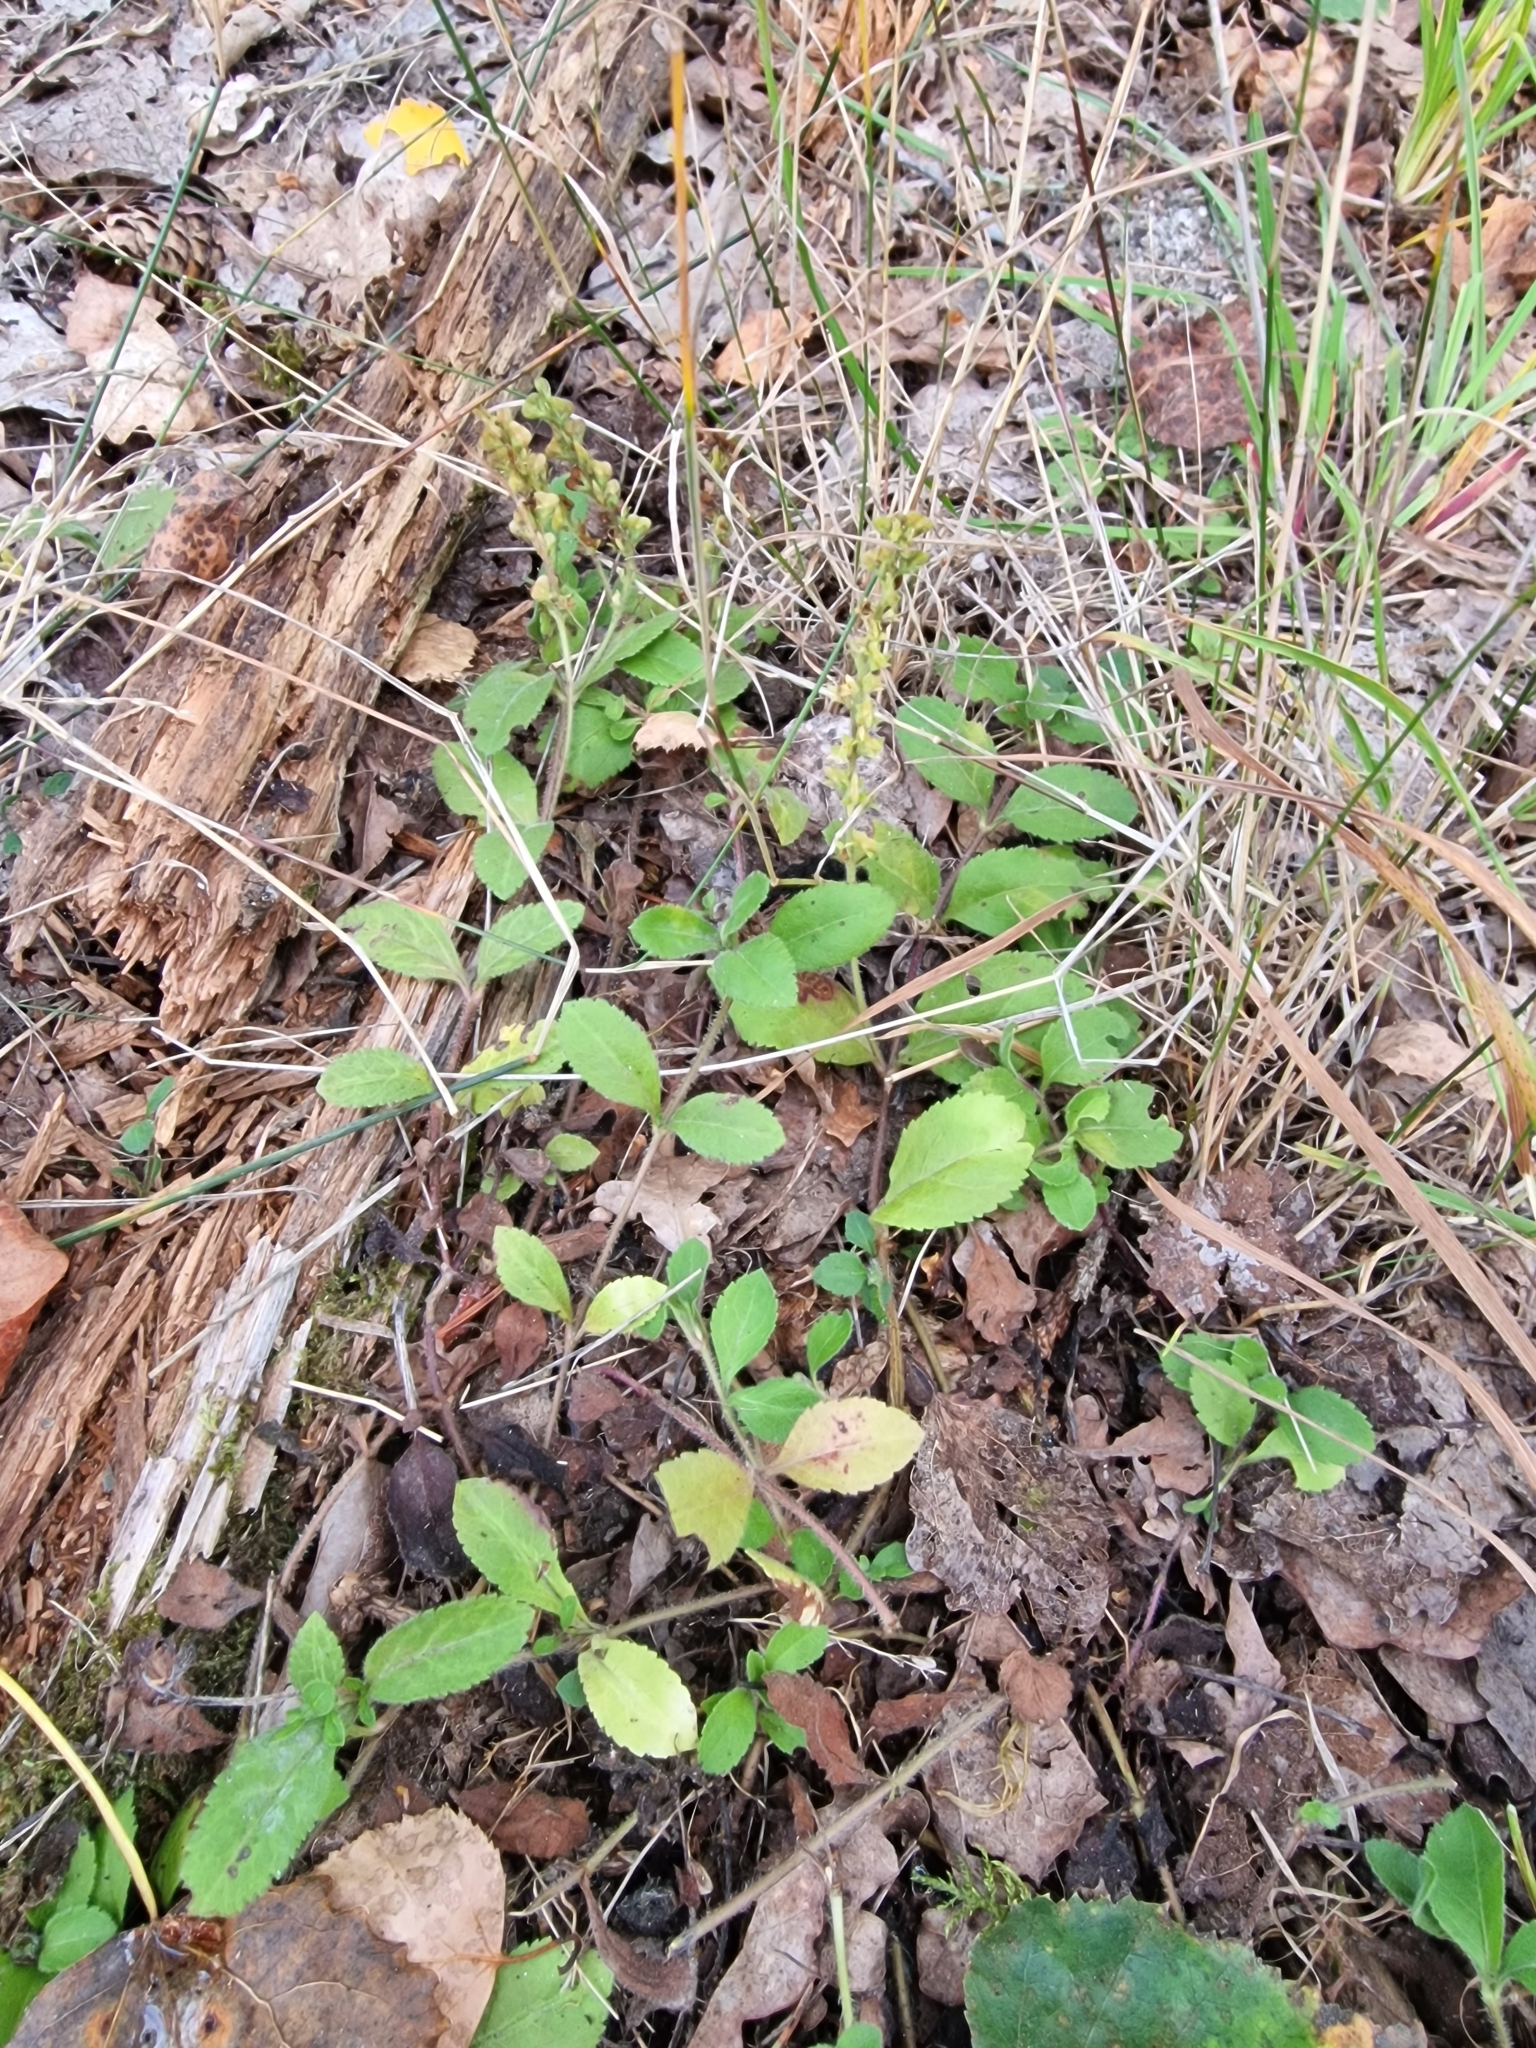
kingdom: Plantae
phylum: Tracheophyta
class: Magnoliopsida
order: Lamiales
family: Plantaginaceae
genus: Veronica
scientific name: Veronica officinalis
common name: Common speedwell
